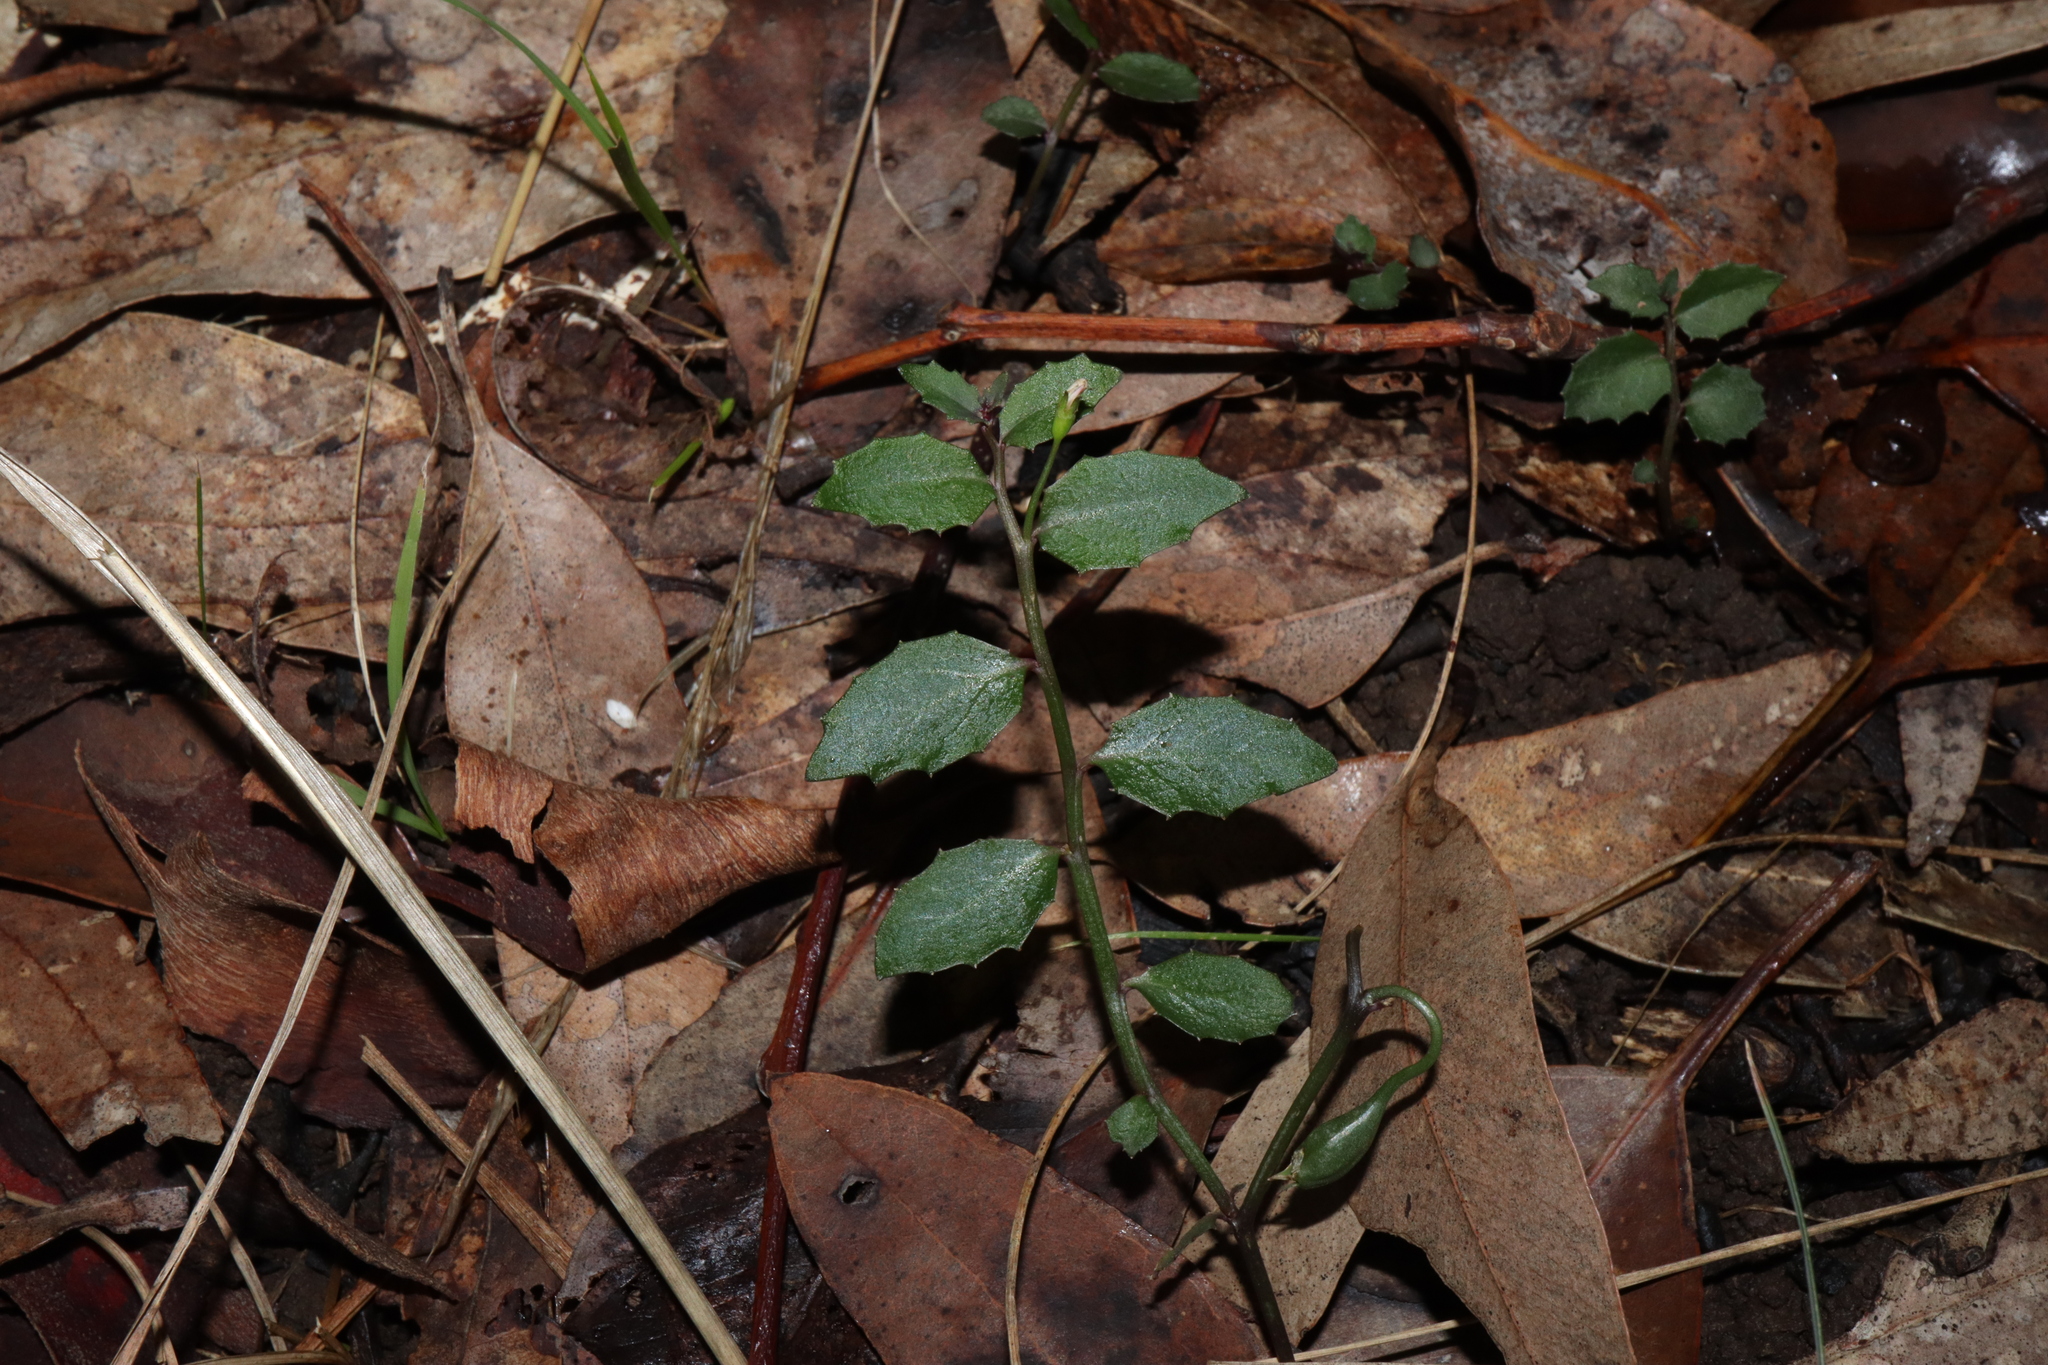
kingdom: Plantae
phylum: Tracheophyta
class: Magnoliopsida
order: Asterales
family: Campanulaceae
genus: Lobelia
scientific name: Lobelia purpurascens
